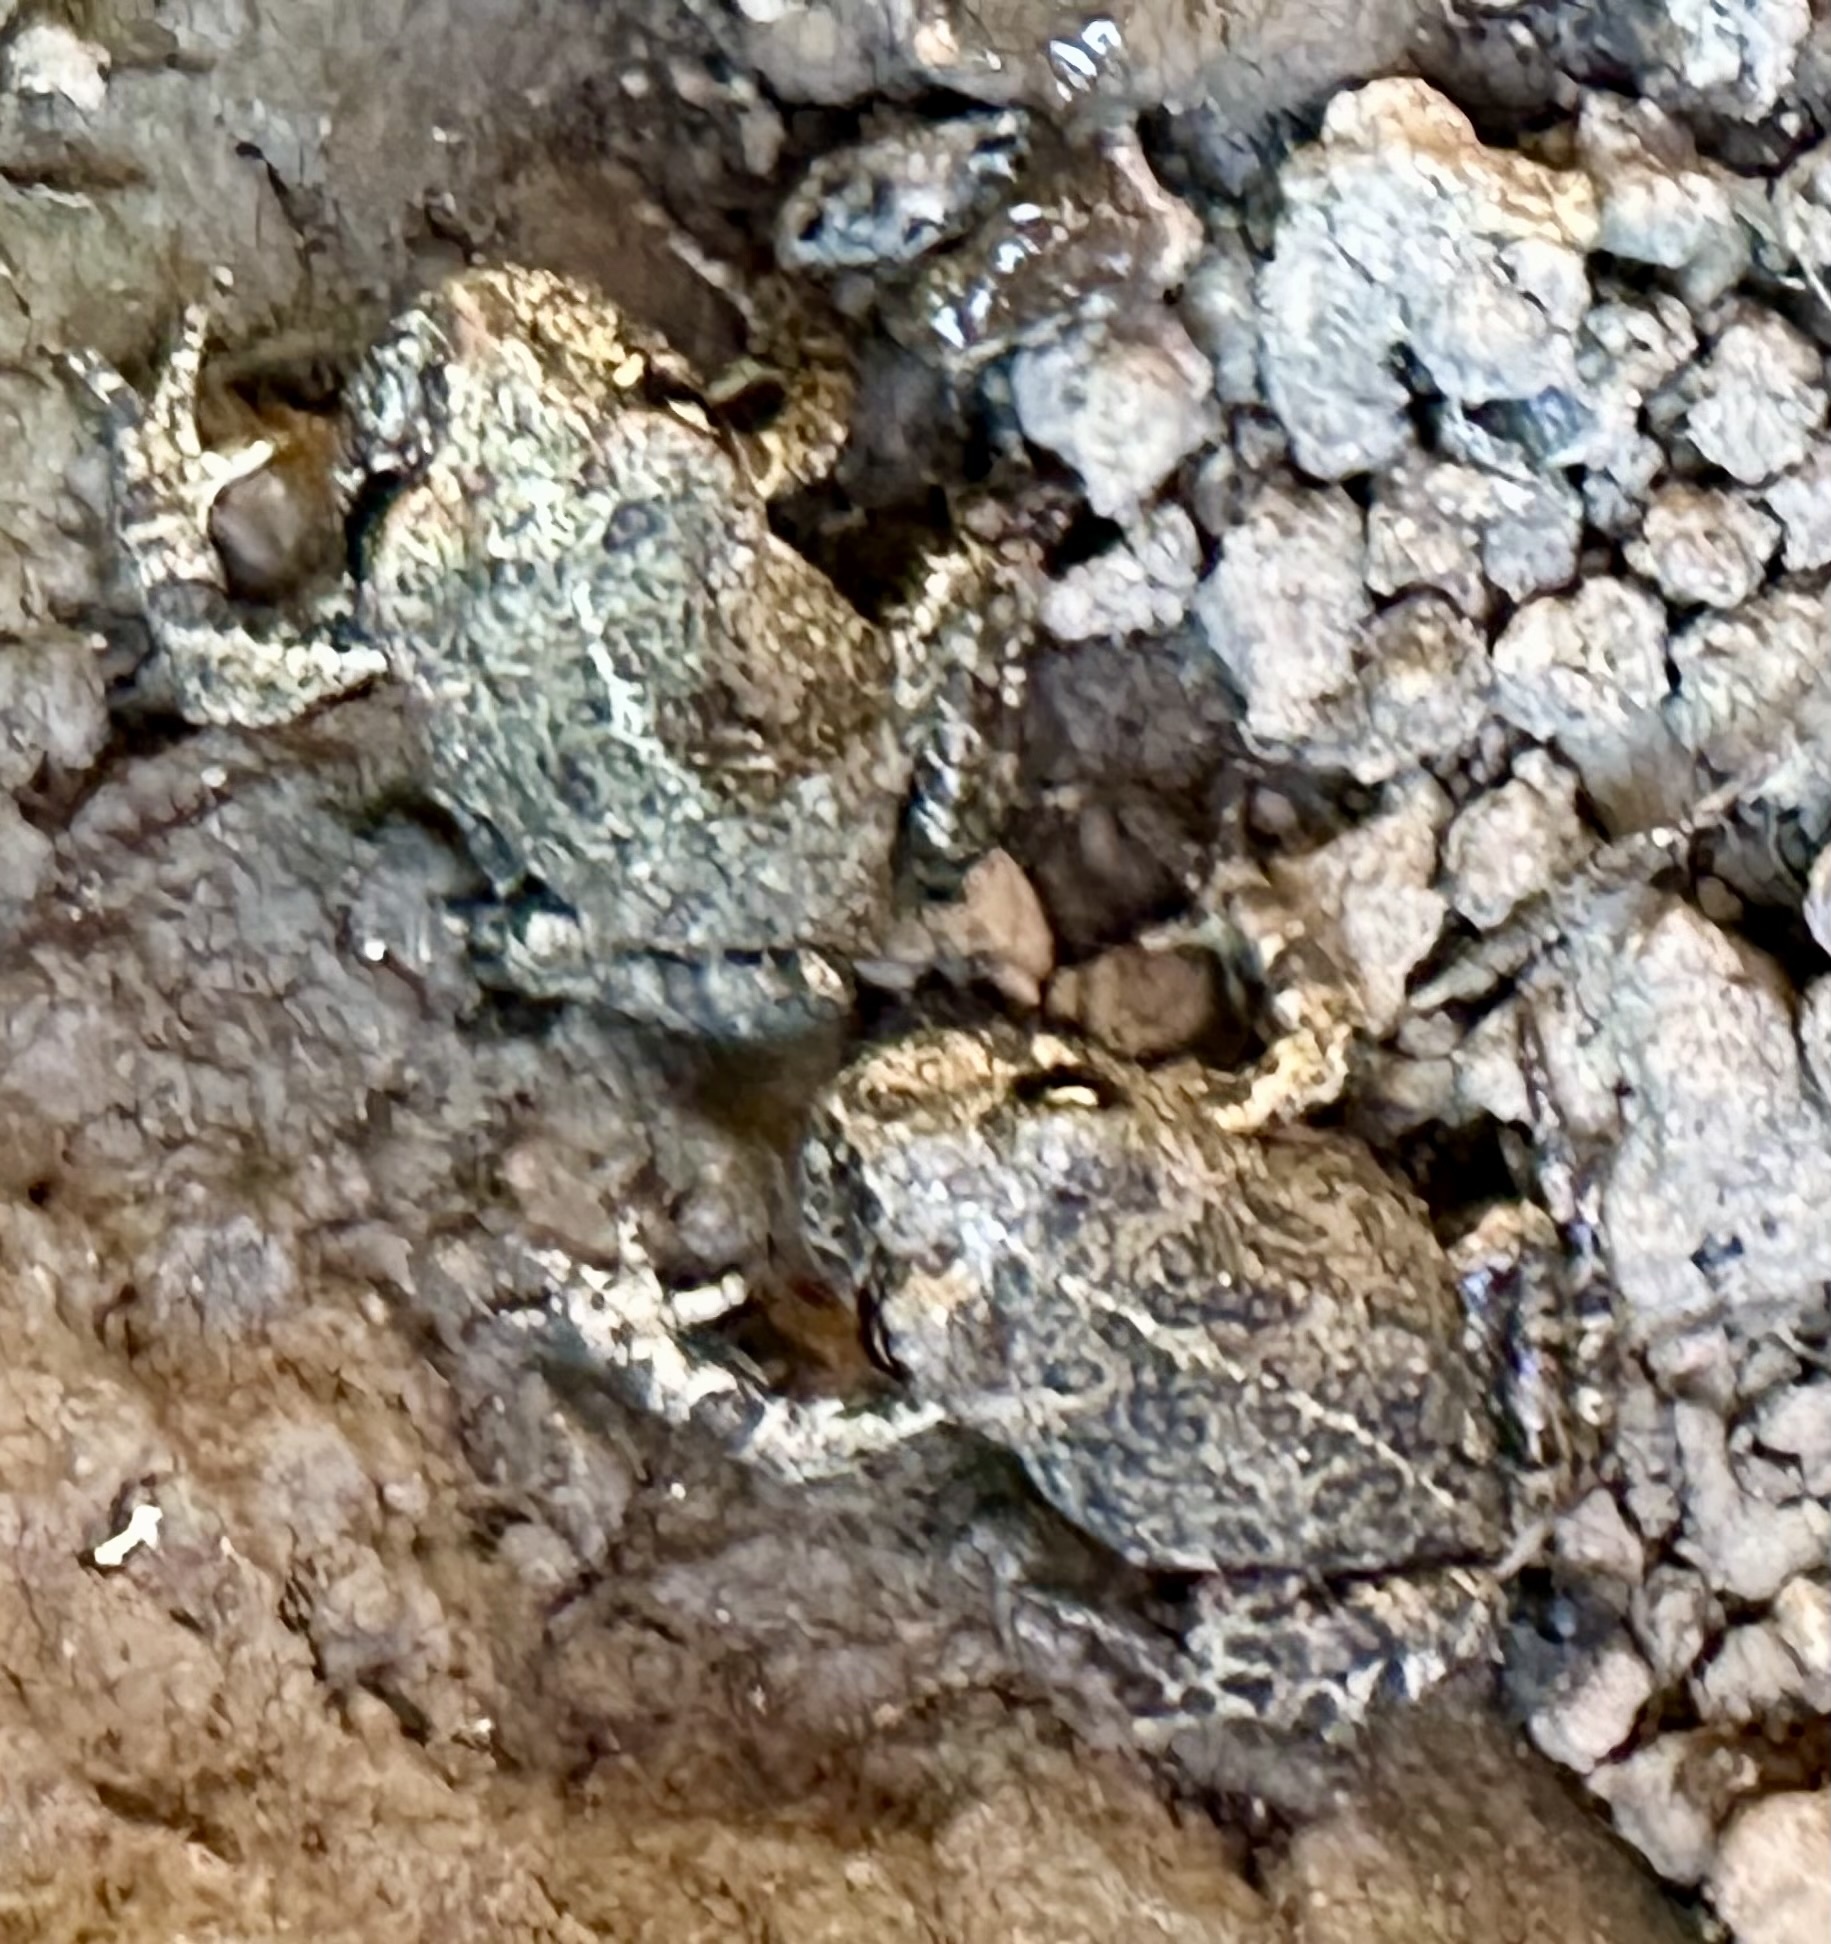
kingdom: Animalia
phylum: Chordata
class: Amphibia
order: Anura
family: Bufonidae
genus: Anaxyrus
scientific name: Anaxyrus boreas
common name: Western toad
